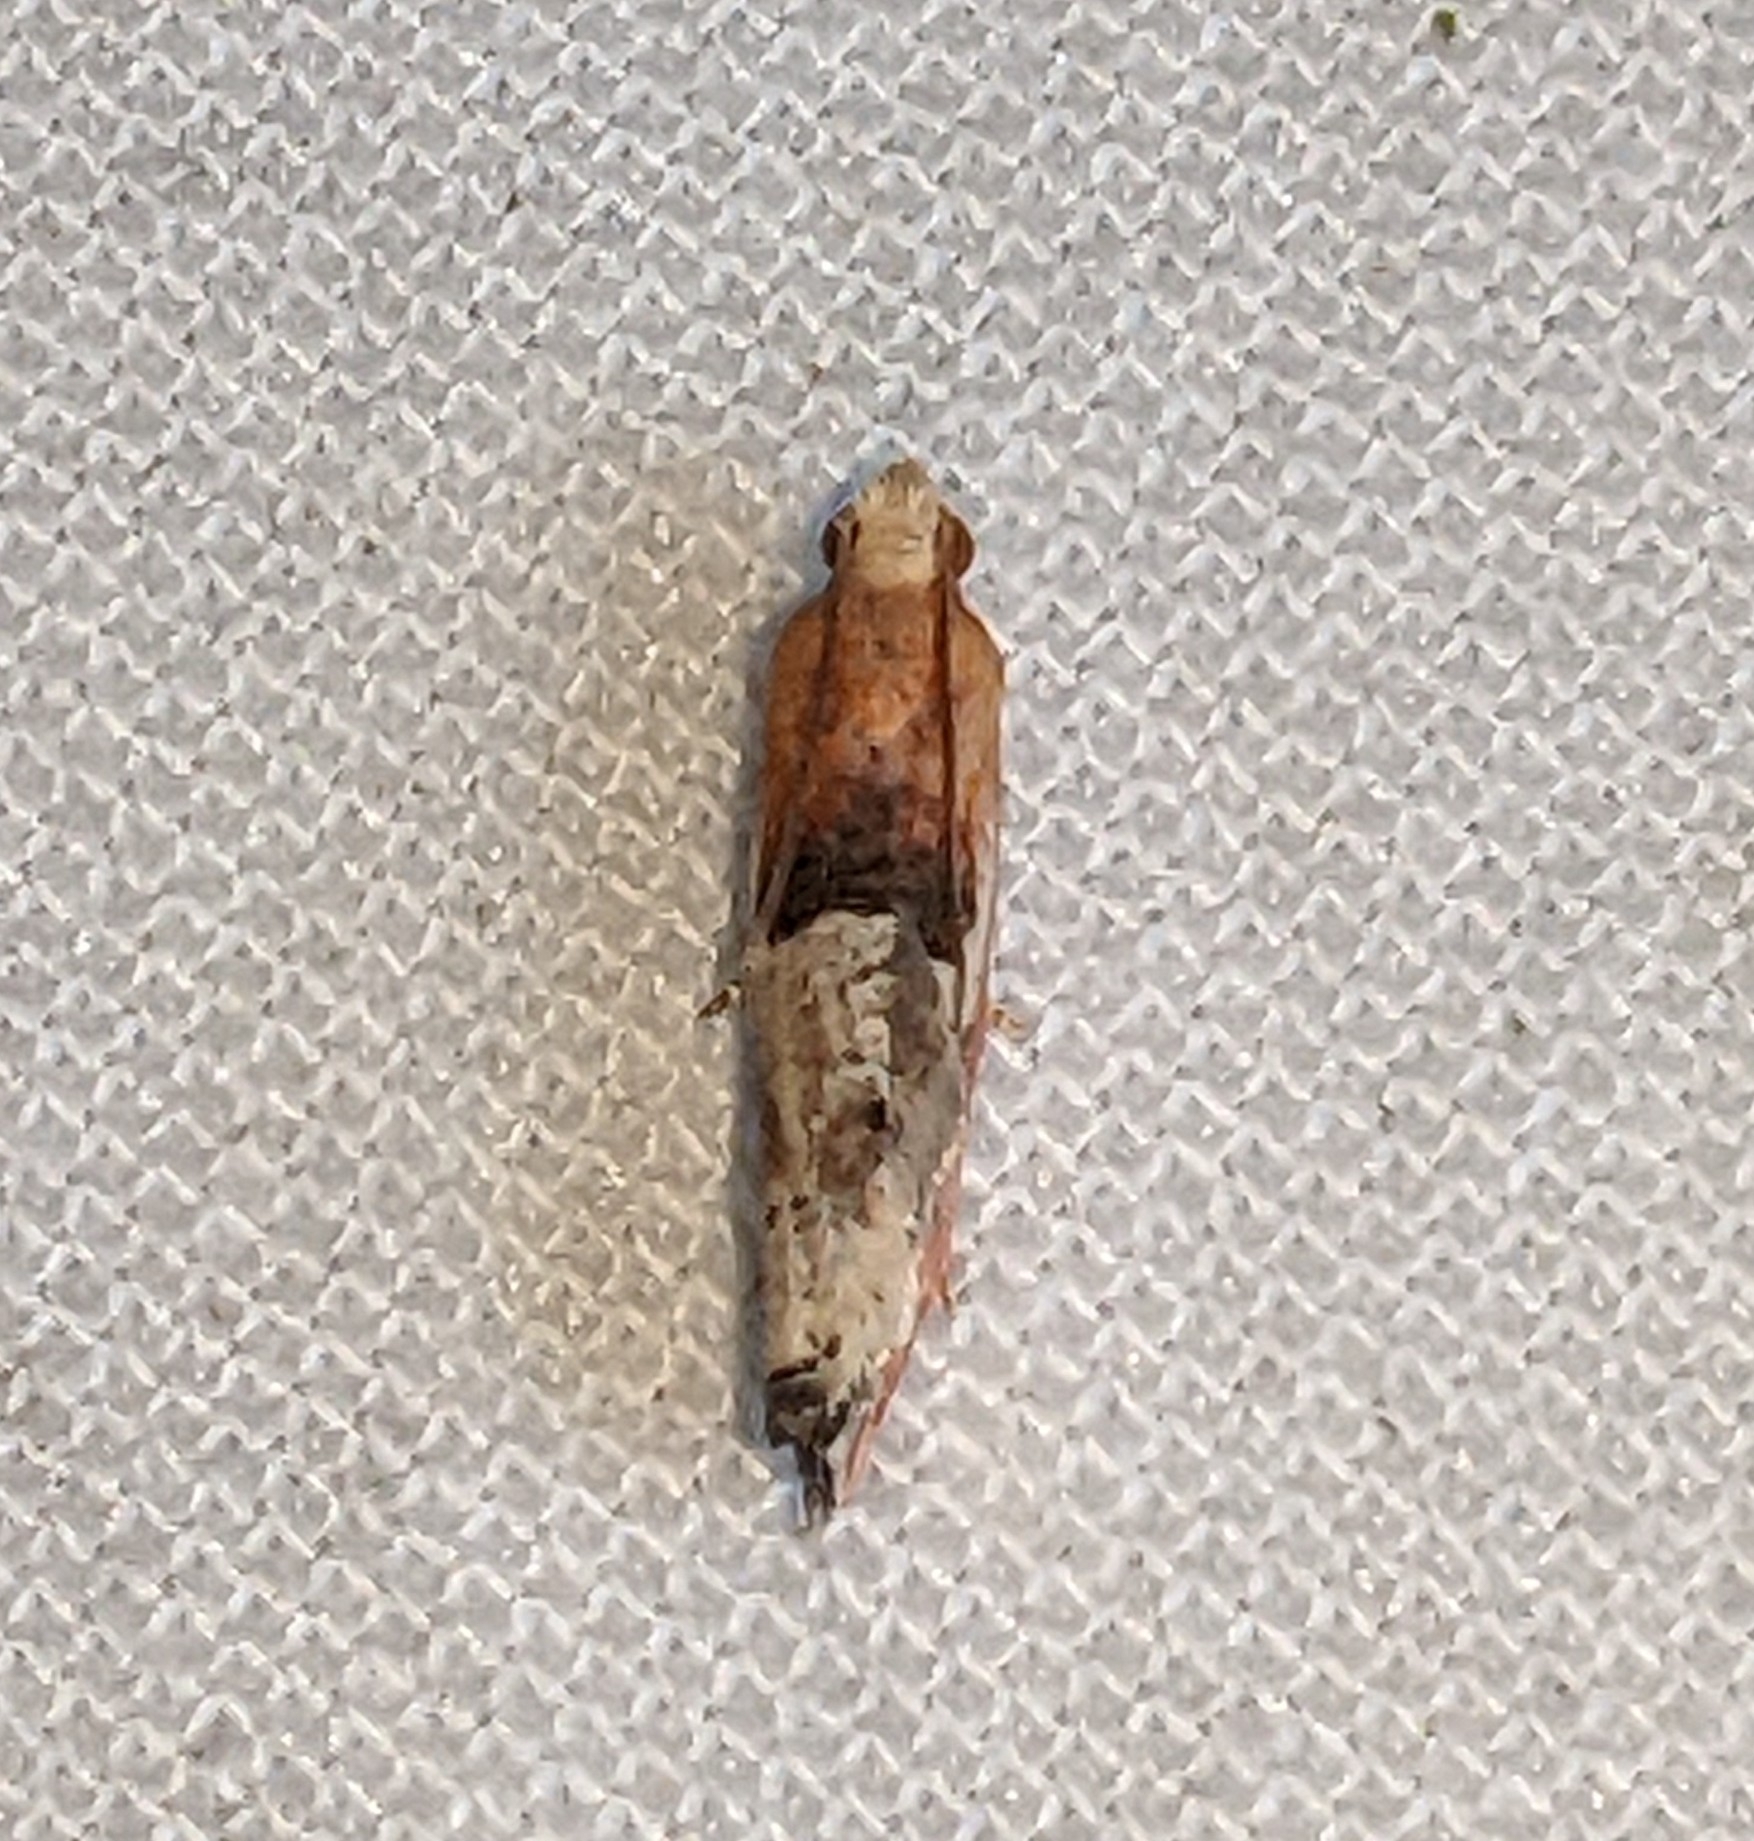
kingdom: Animalia
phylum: Arthropoda
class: Insecta
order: Lepidoptera
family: Tortricidae
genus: Epinotia
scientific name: Epinotia johnsonana
